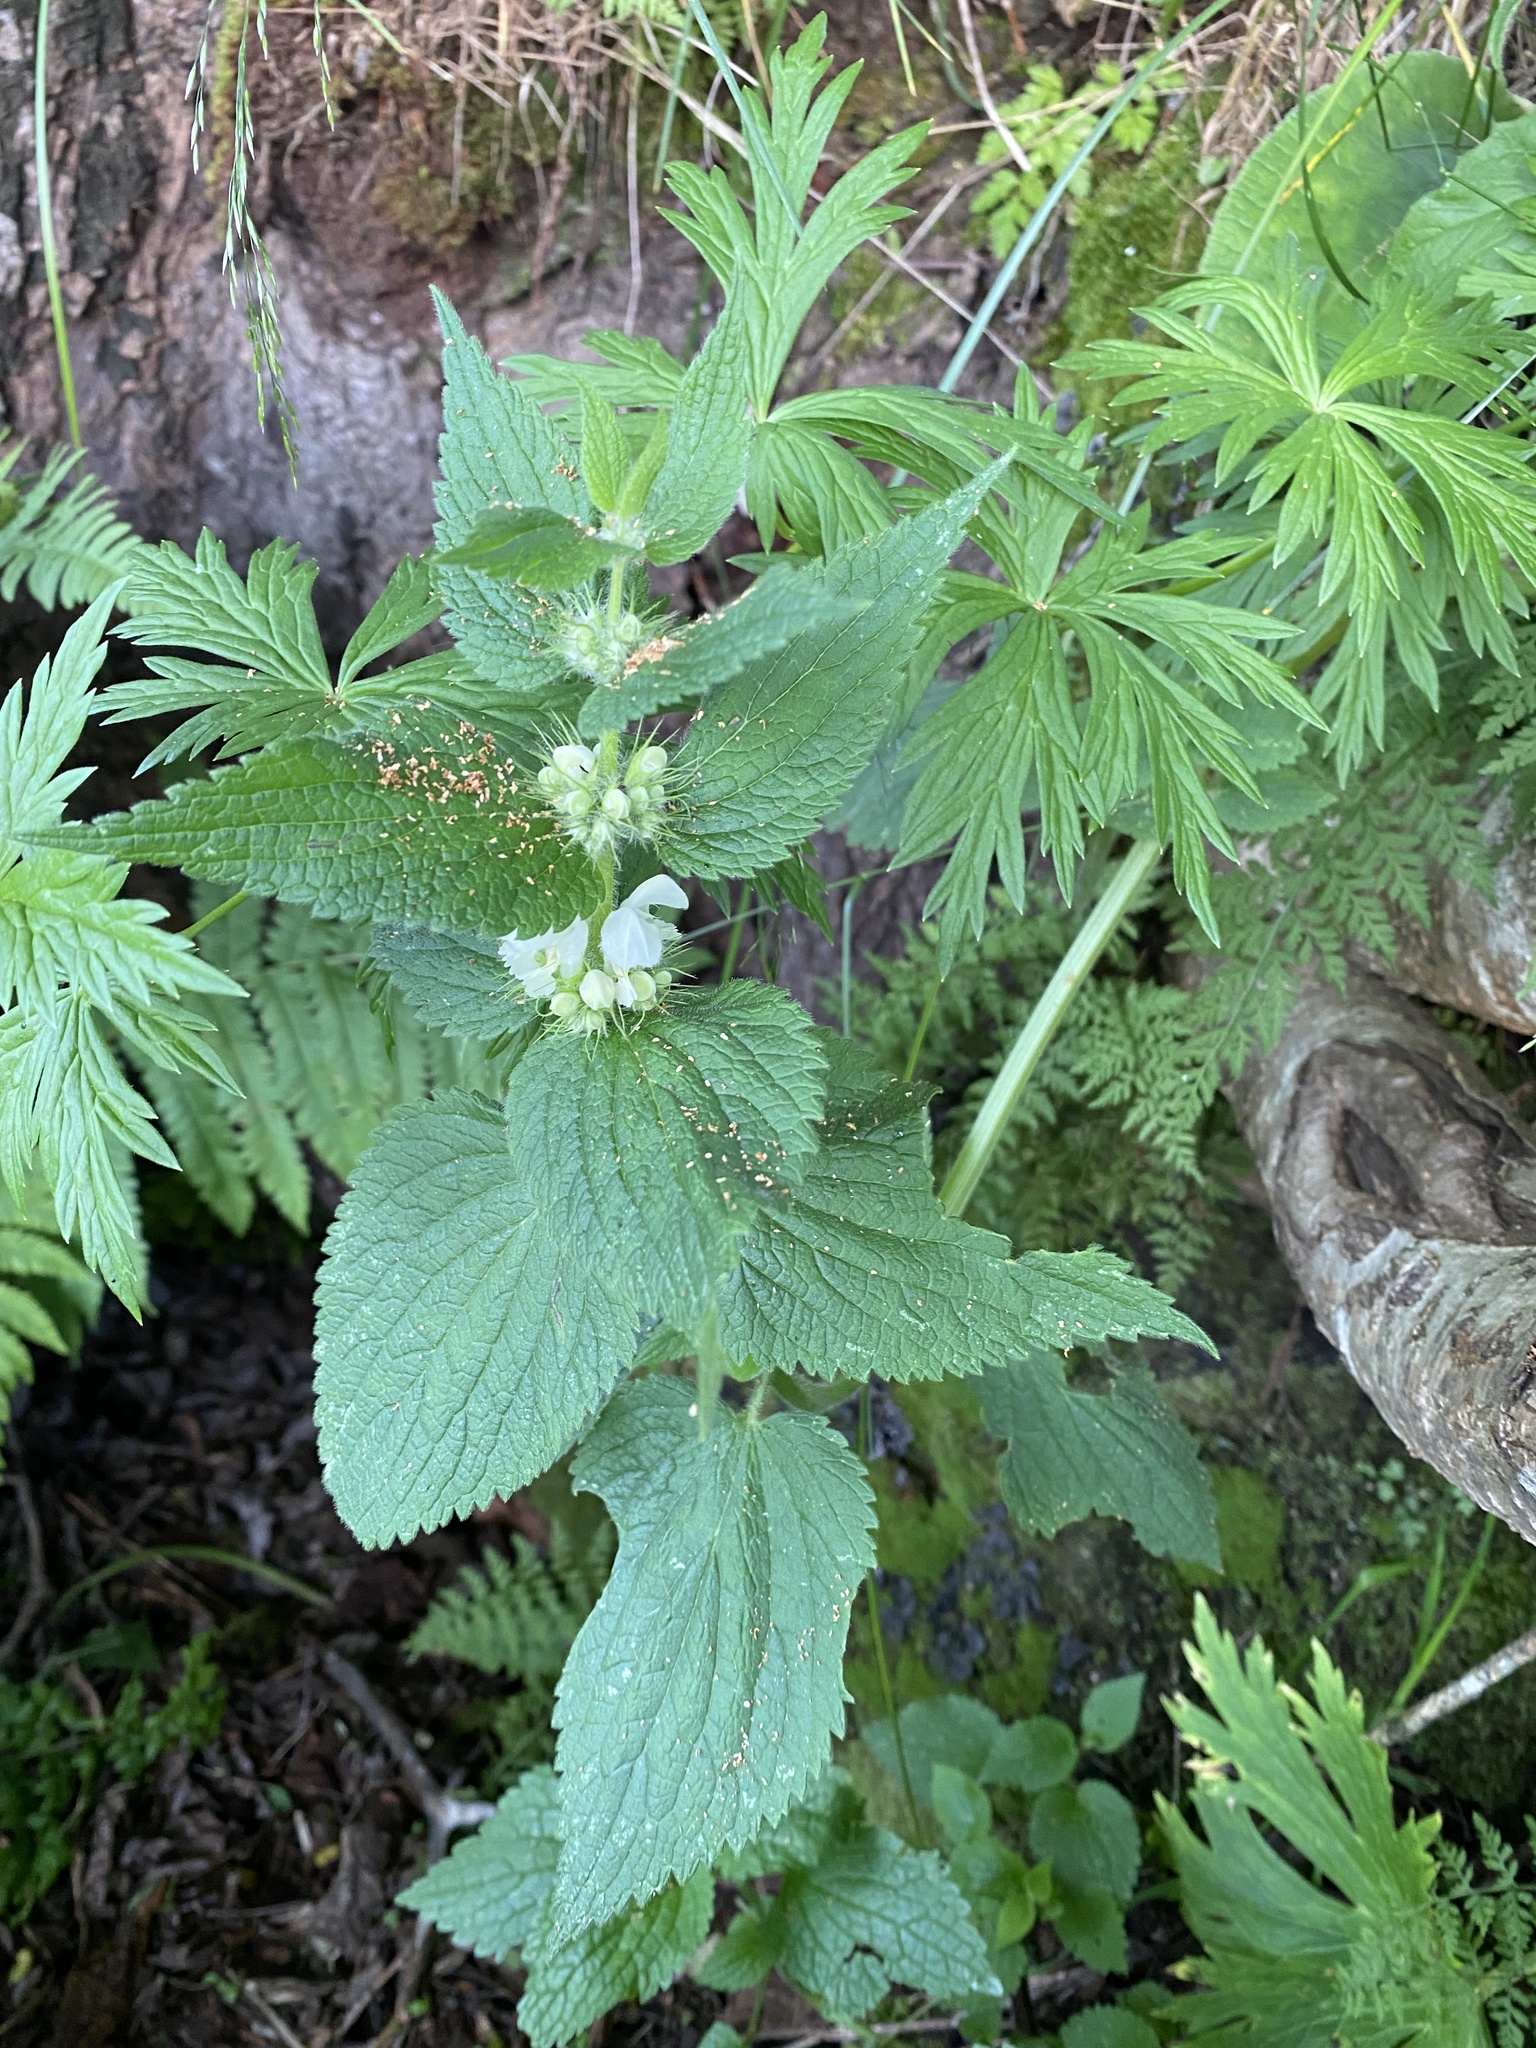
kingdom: Plantae
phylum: Tracheophyta
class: Magnoliopsida
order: Lamiales
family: Lamiaceae
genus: Lamium
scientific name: Lamium album
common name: White dead-nettle
